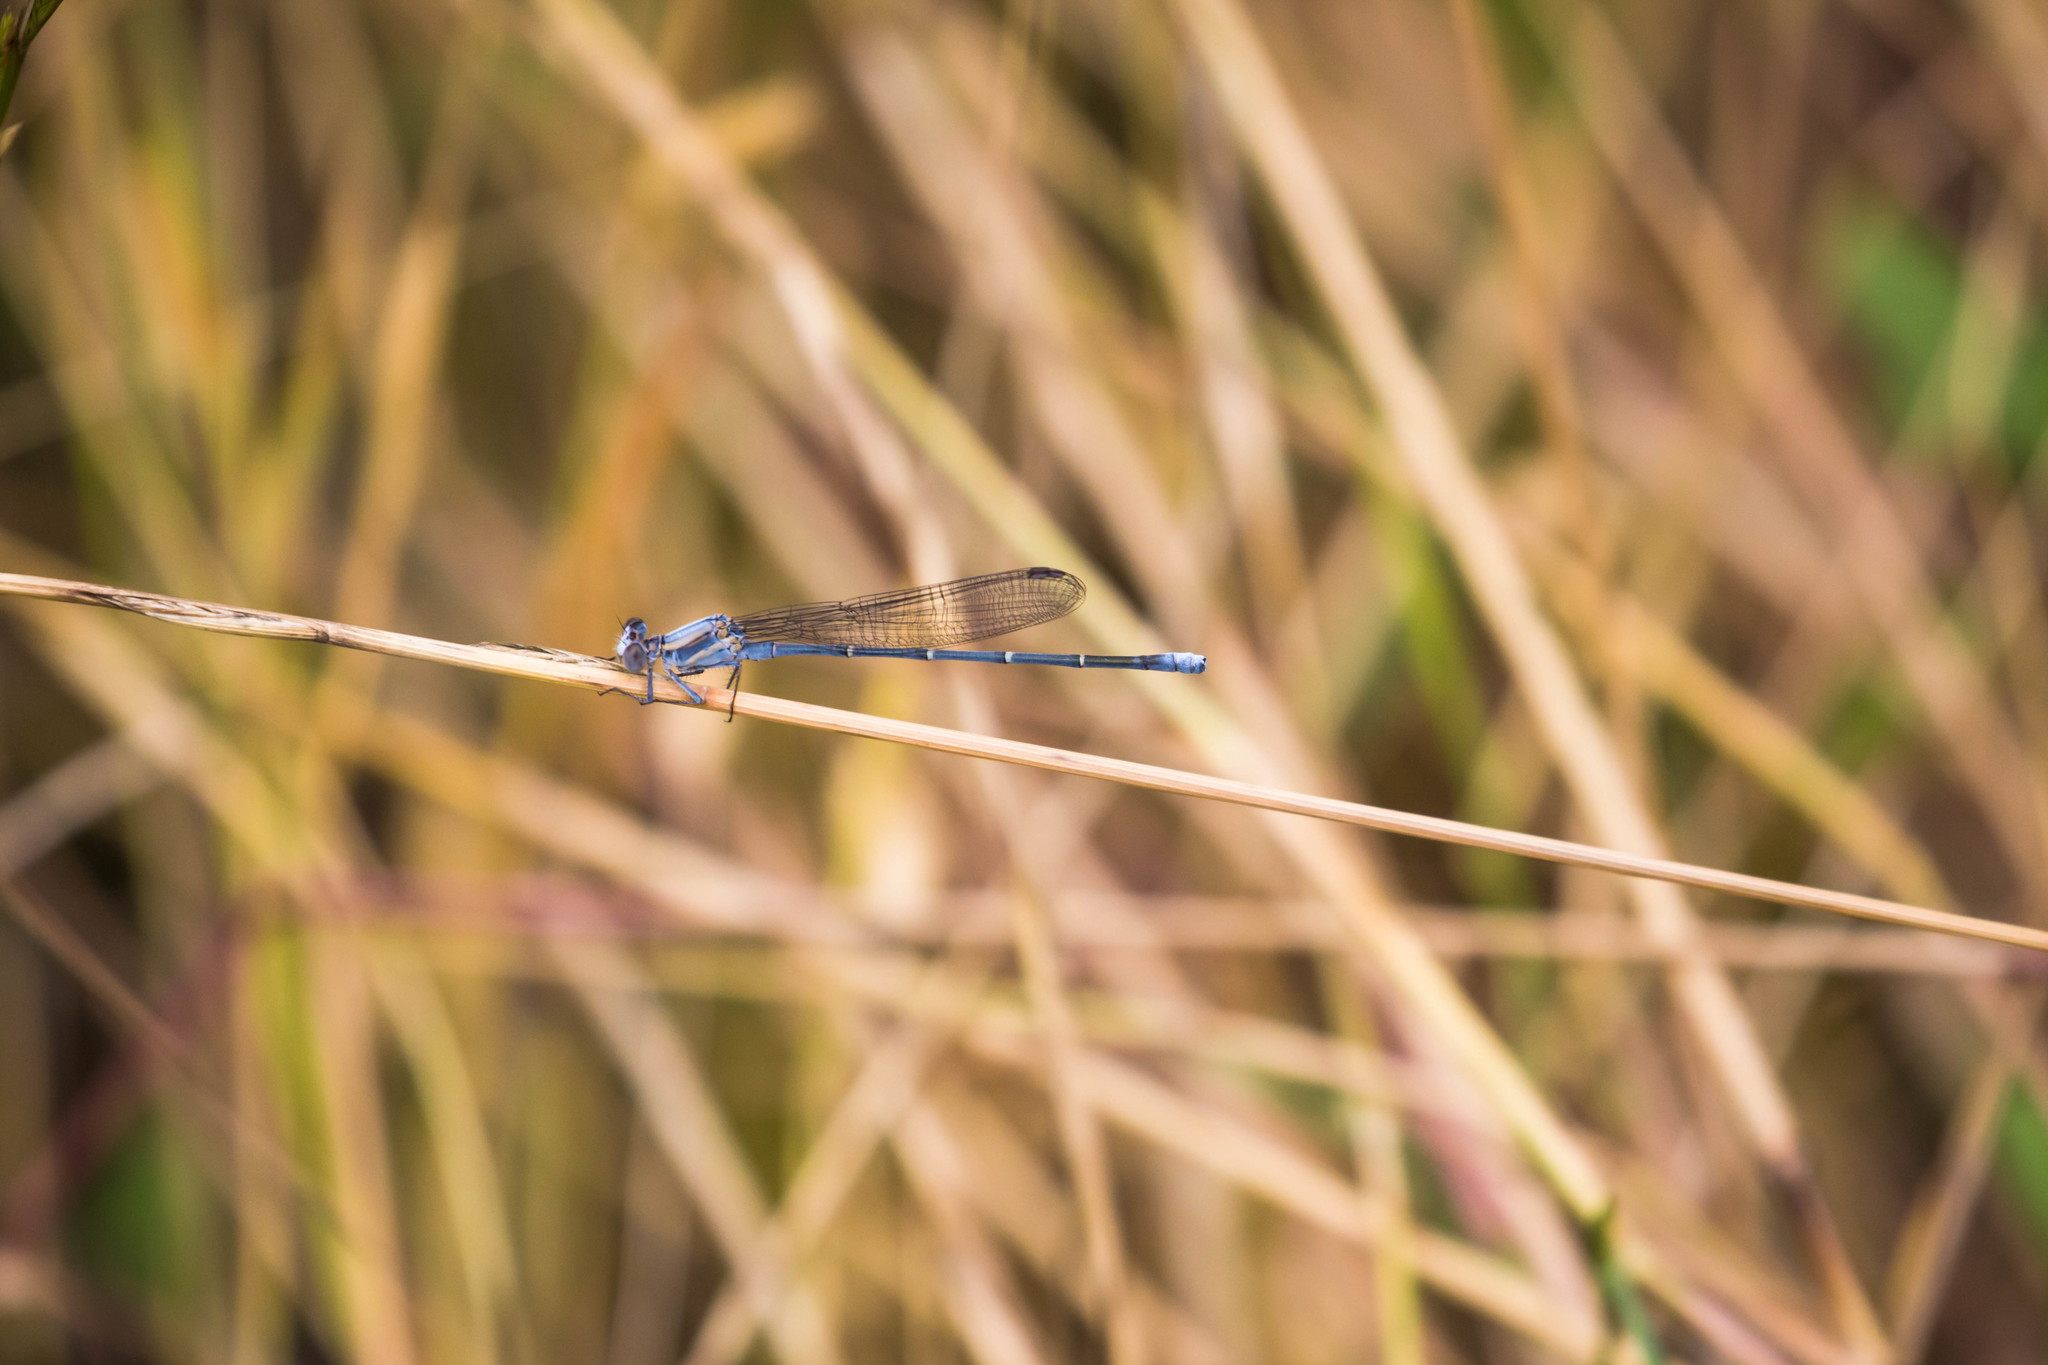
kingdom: Animalia
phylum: Arthropoda
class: Insecta
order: Odonata
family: Coenagrionidae
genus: Argia
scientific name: Argia moesta
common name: Powdered dancer
